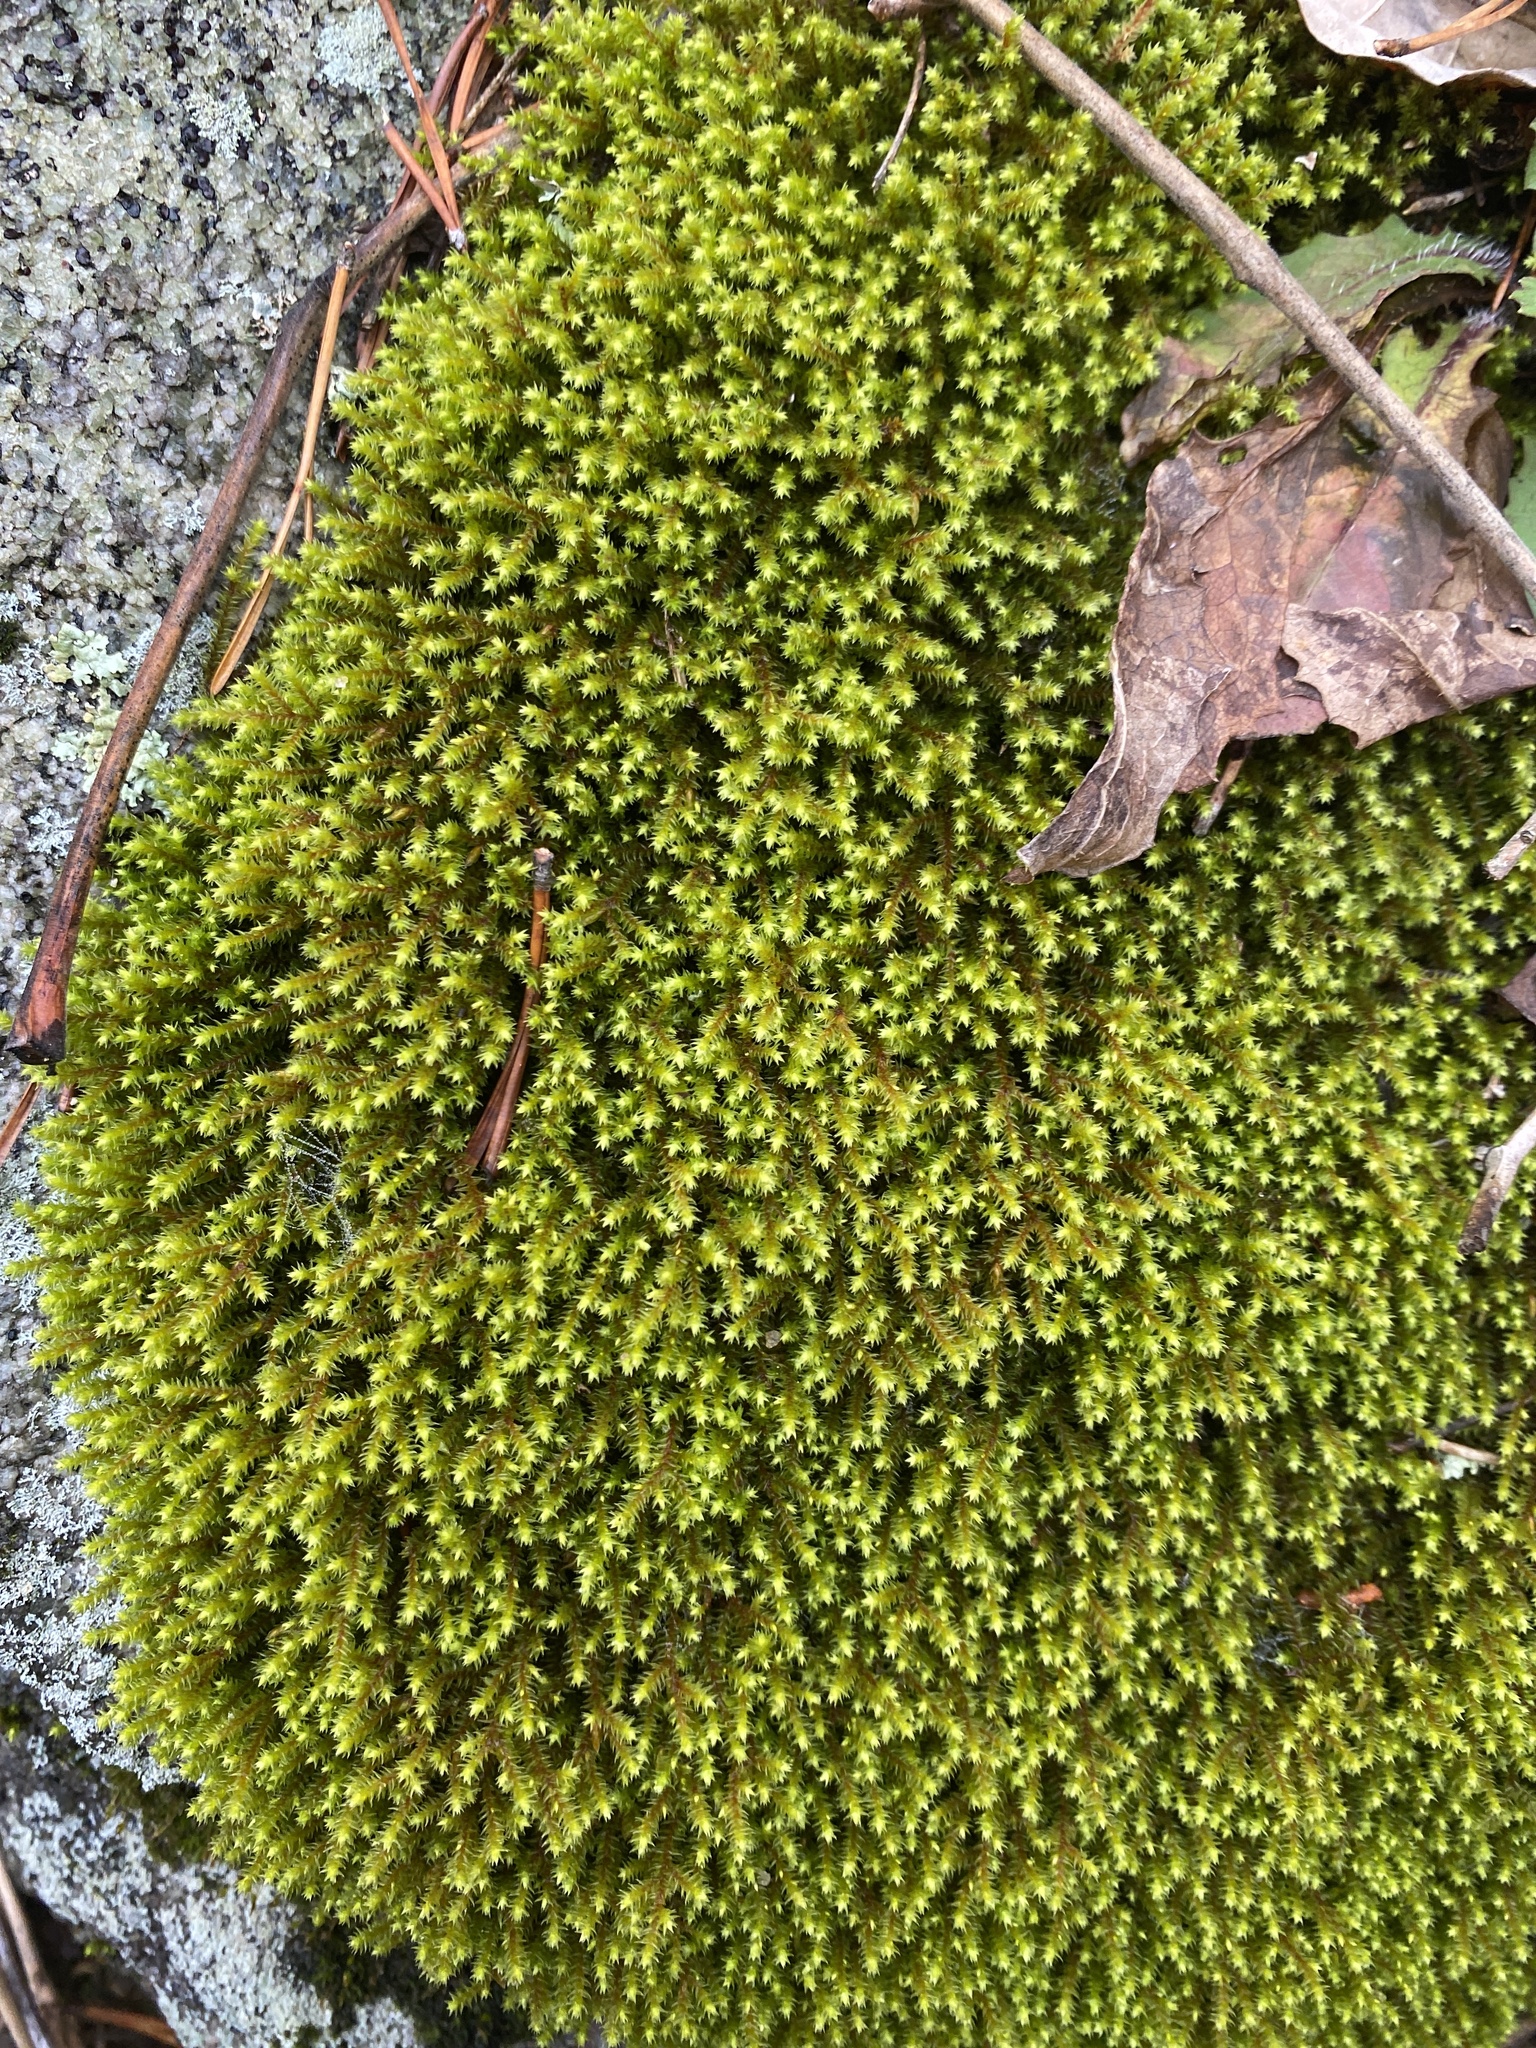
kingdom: Plantae
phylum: Bryophyta
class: Bryopsida
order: Hedwigiales
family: Hedwigiaceae
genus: Hedwigia
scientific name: Hedwigia ciliata
